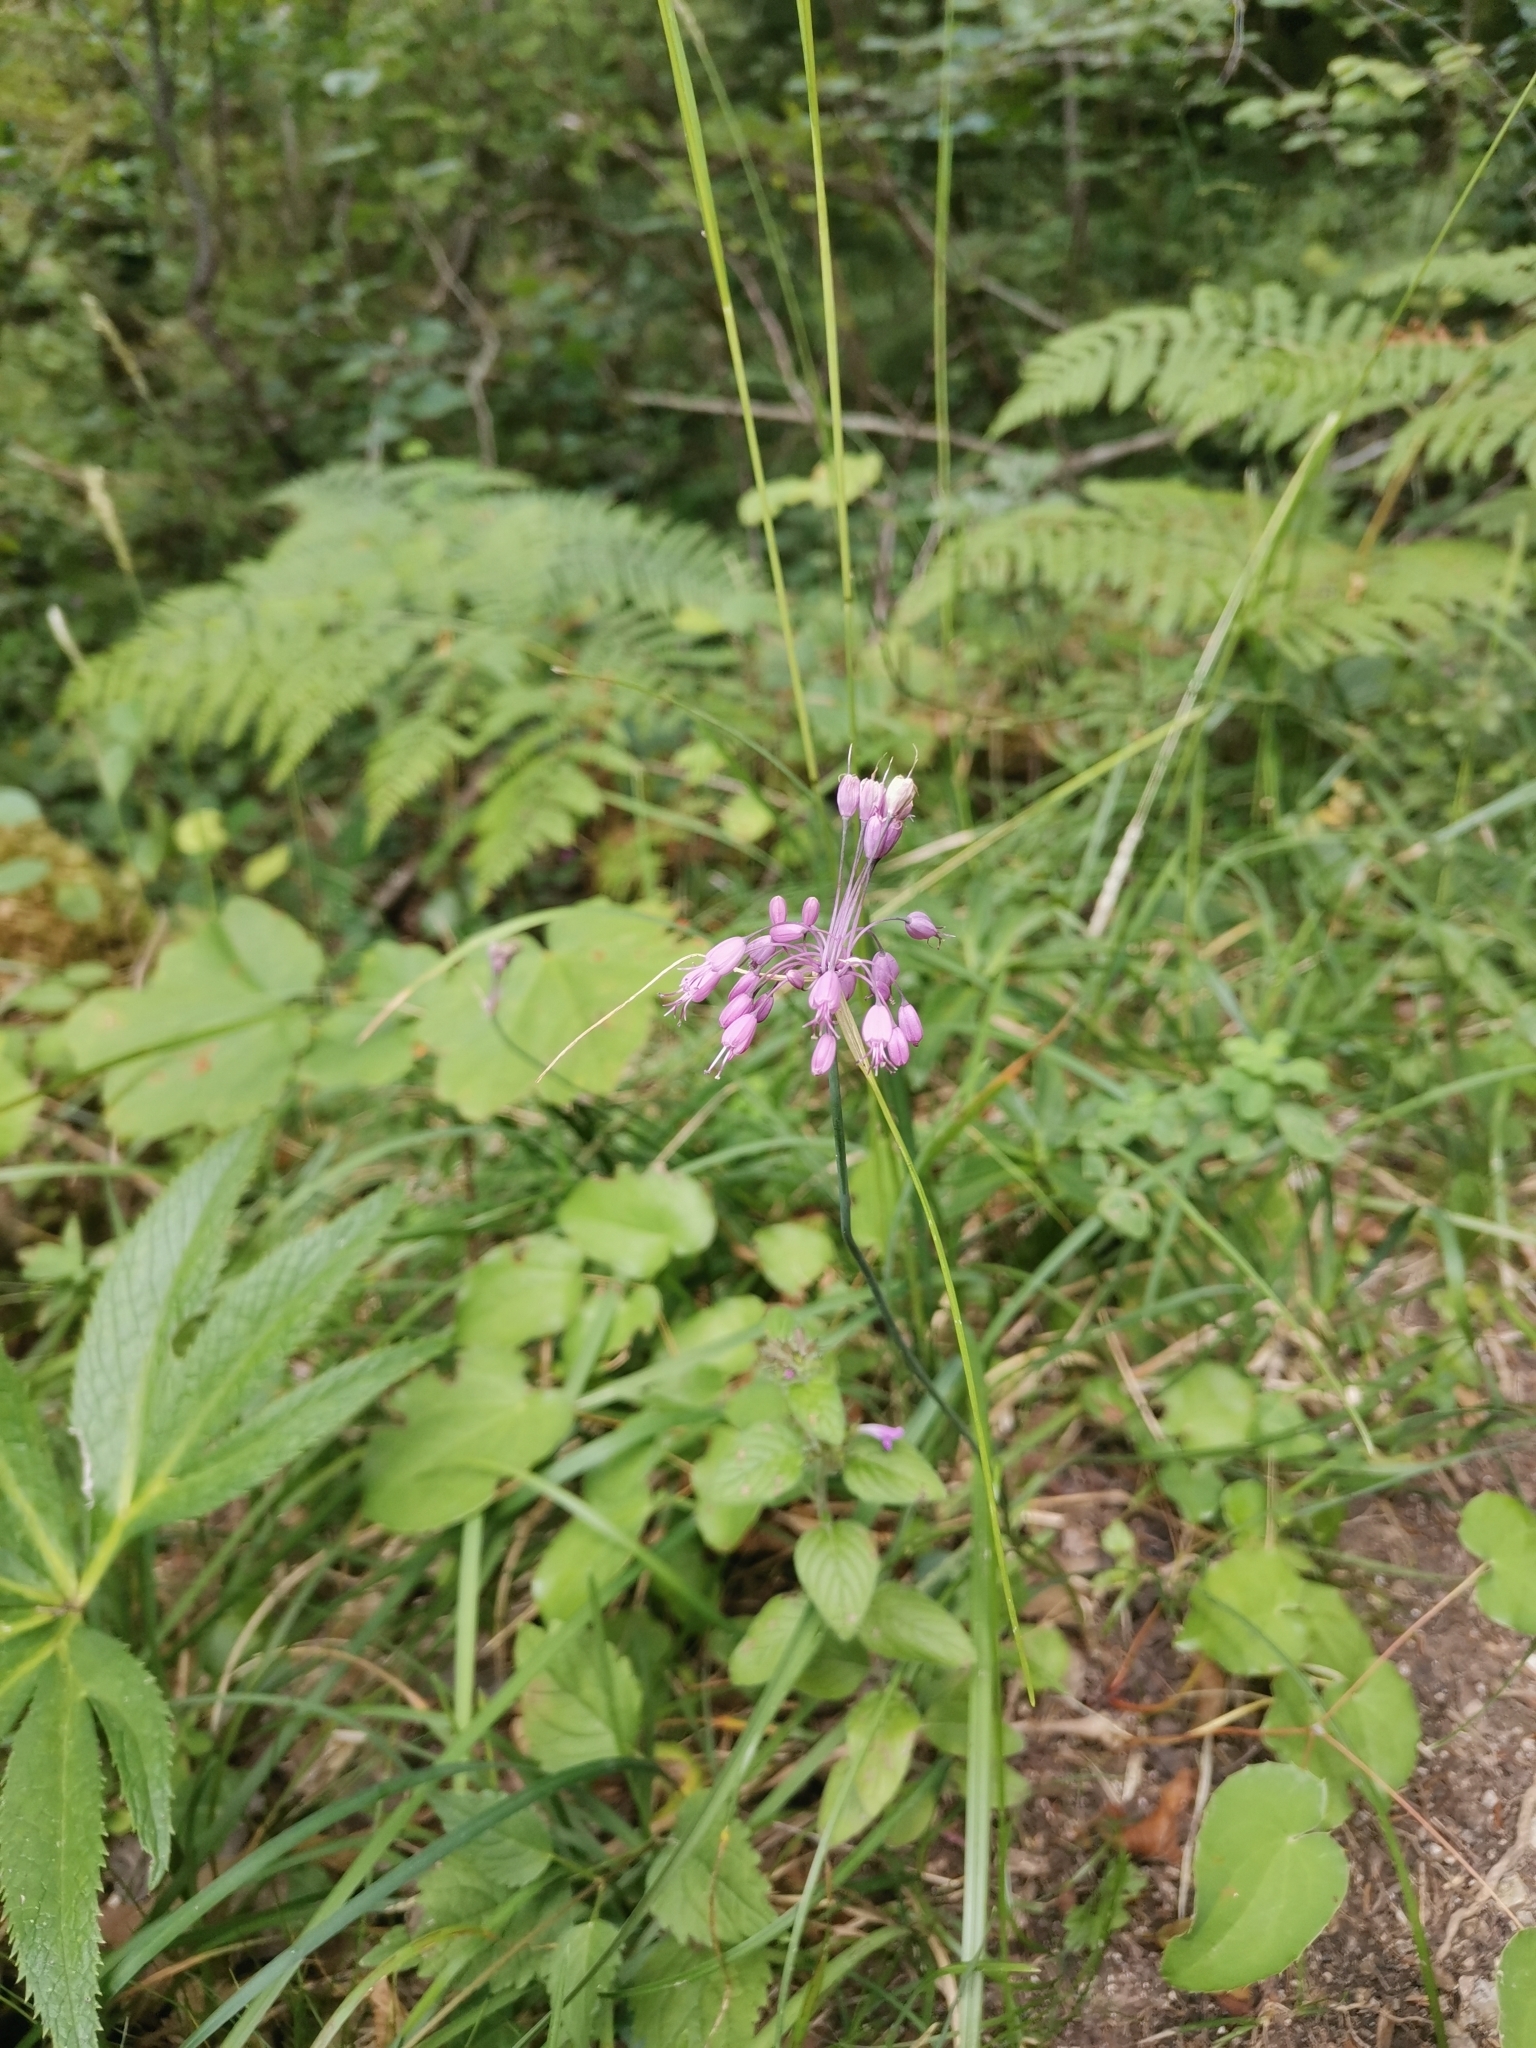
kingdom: Plantae
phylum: Tracheophyta
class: Liliopsida
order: Asparagales
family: Amaryllidaceae
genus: Allium
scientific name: Allium coloratum
